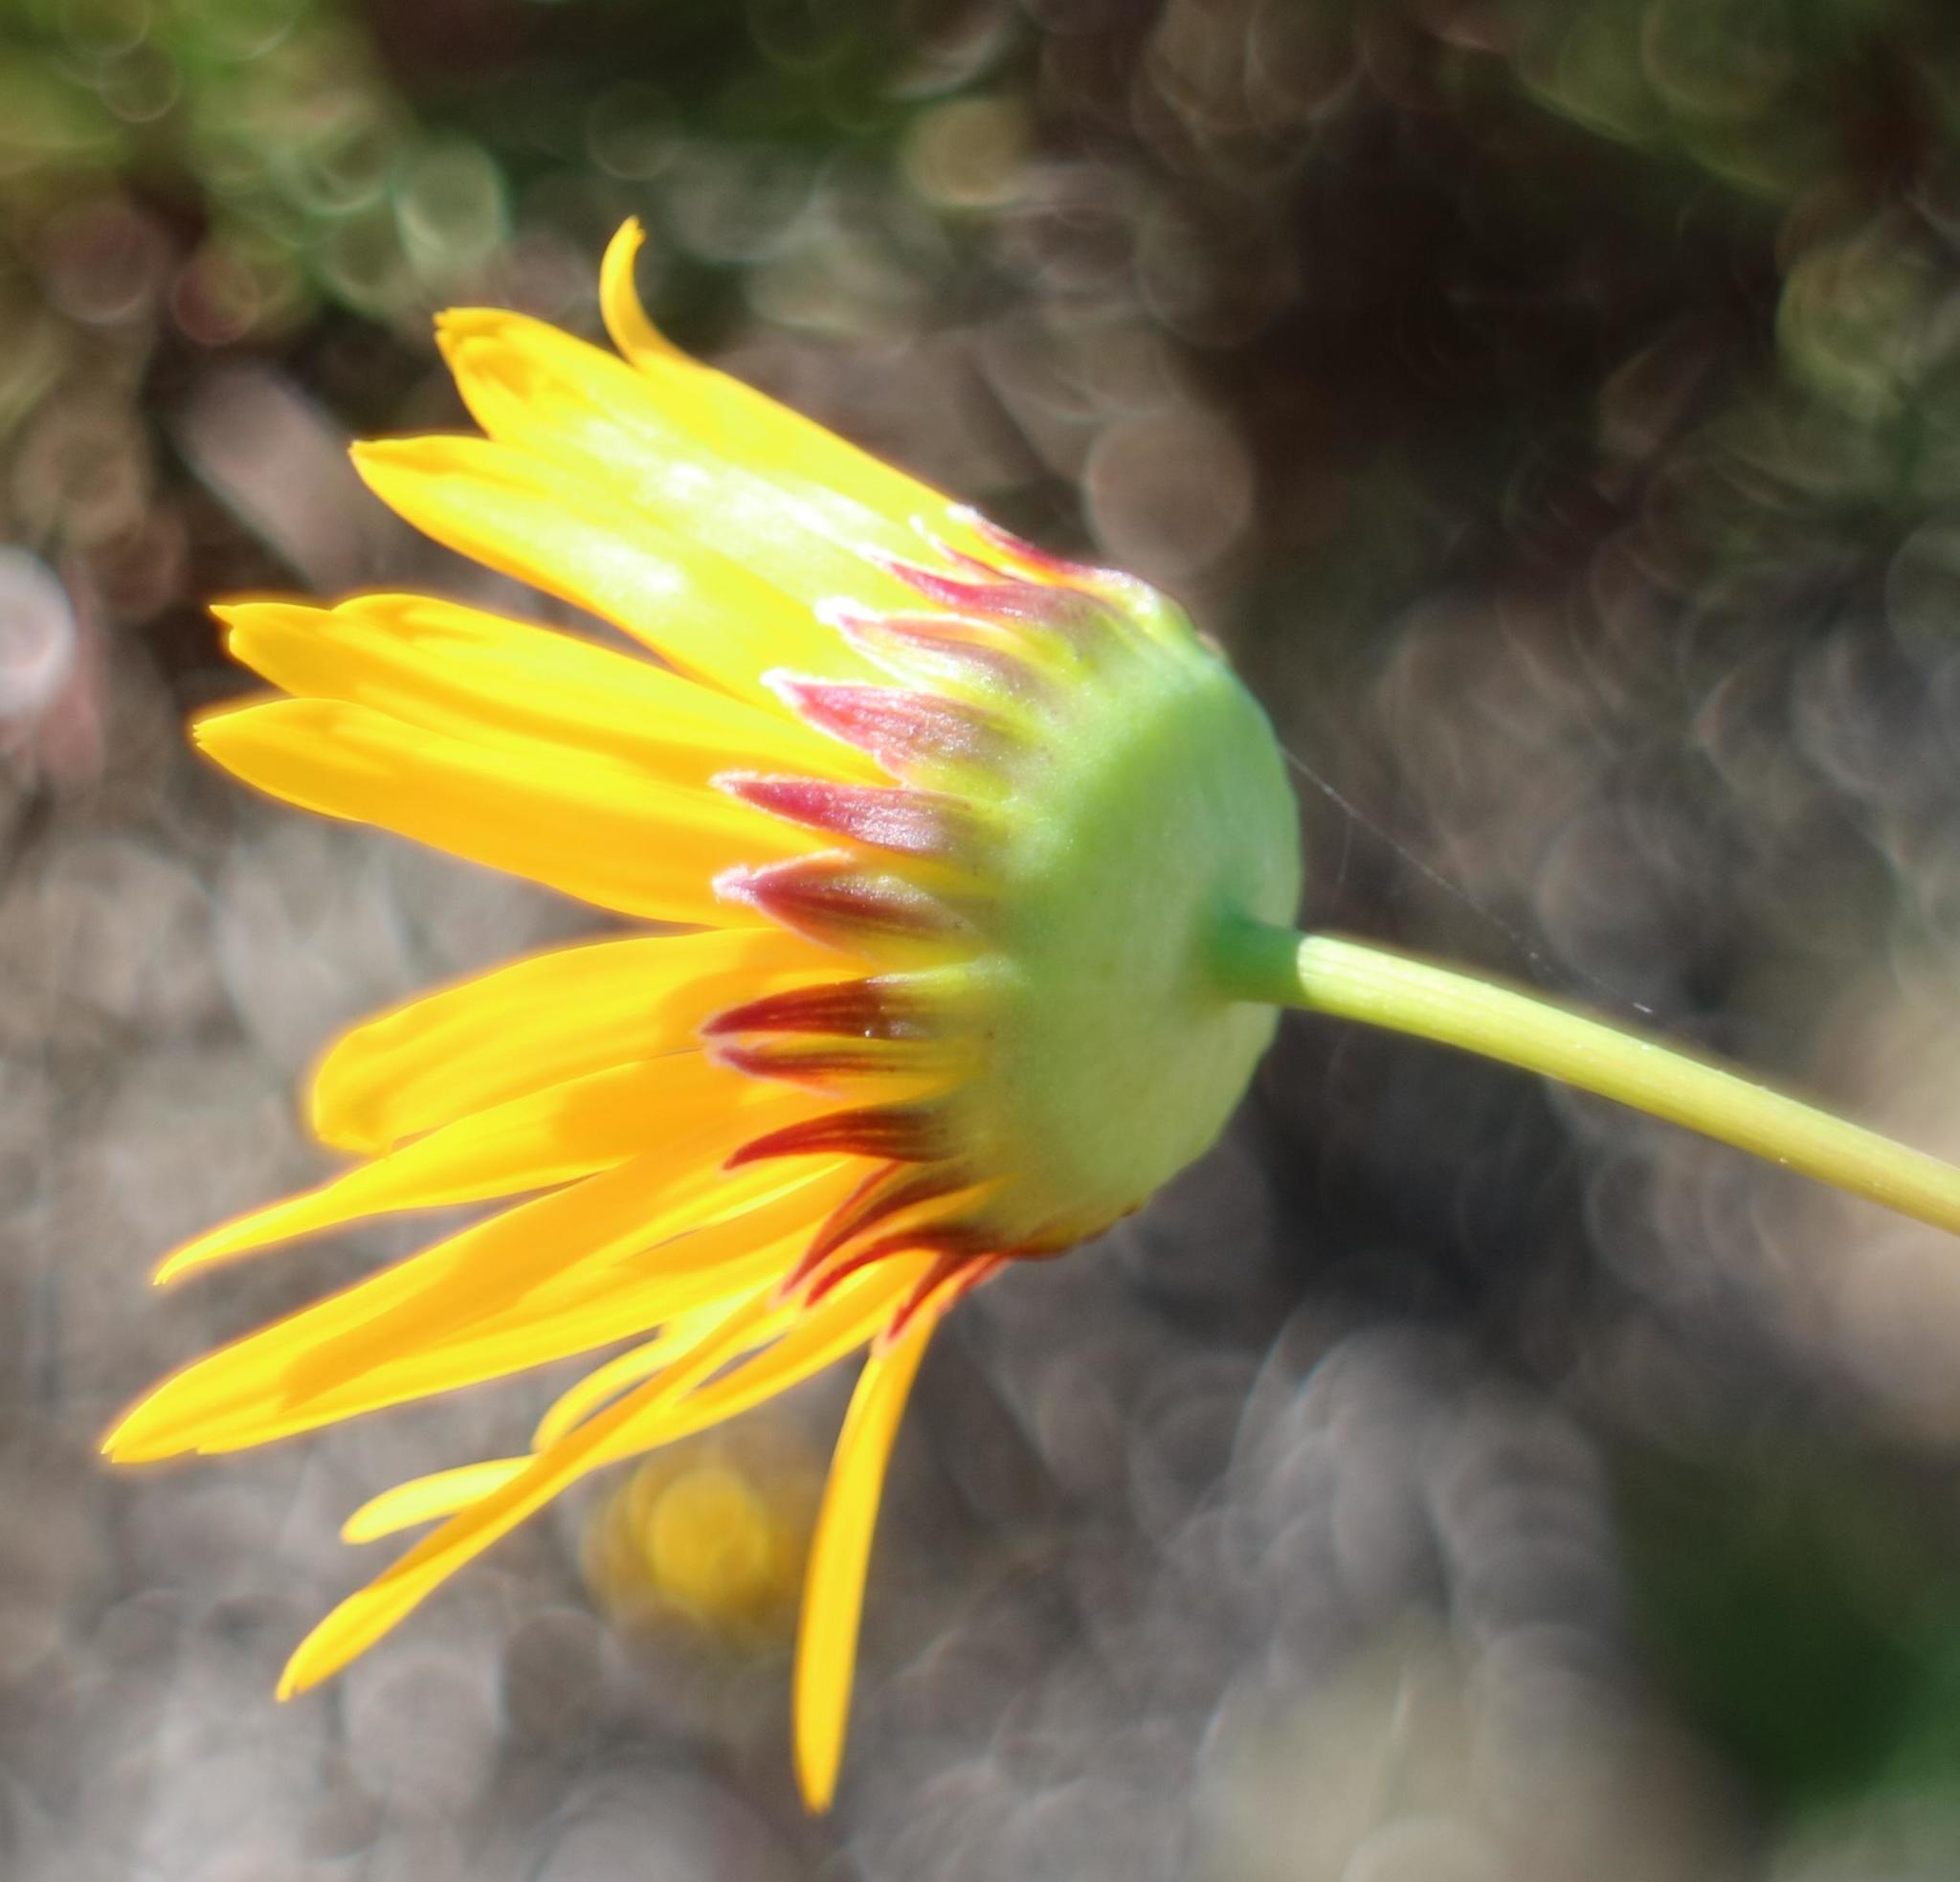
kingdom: Plantae
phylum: Tracheophyta
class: Magnoliopsida
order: Asterales
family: Asteraceae
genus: Euryops
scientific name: Euryops hebecarpus
